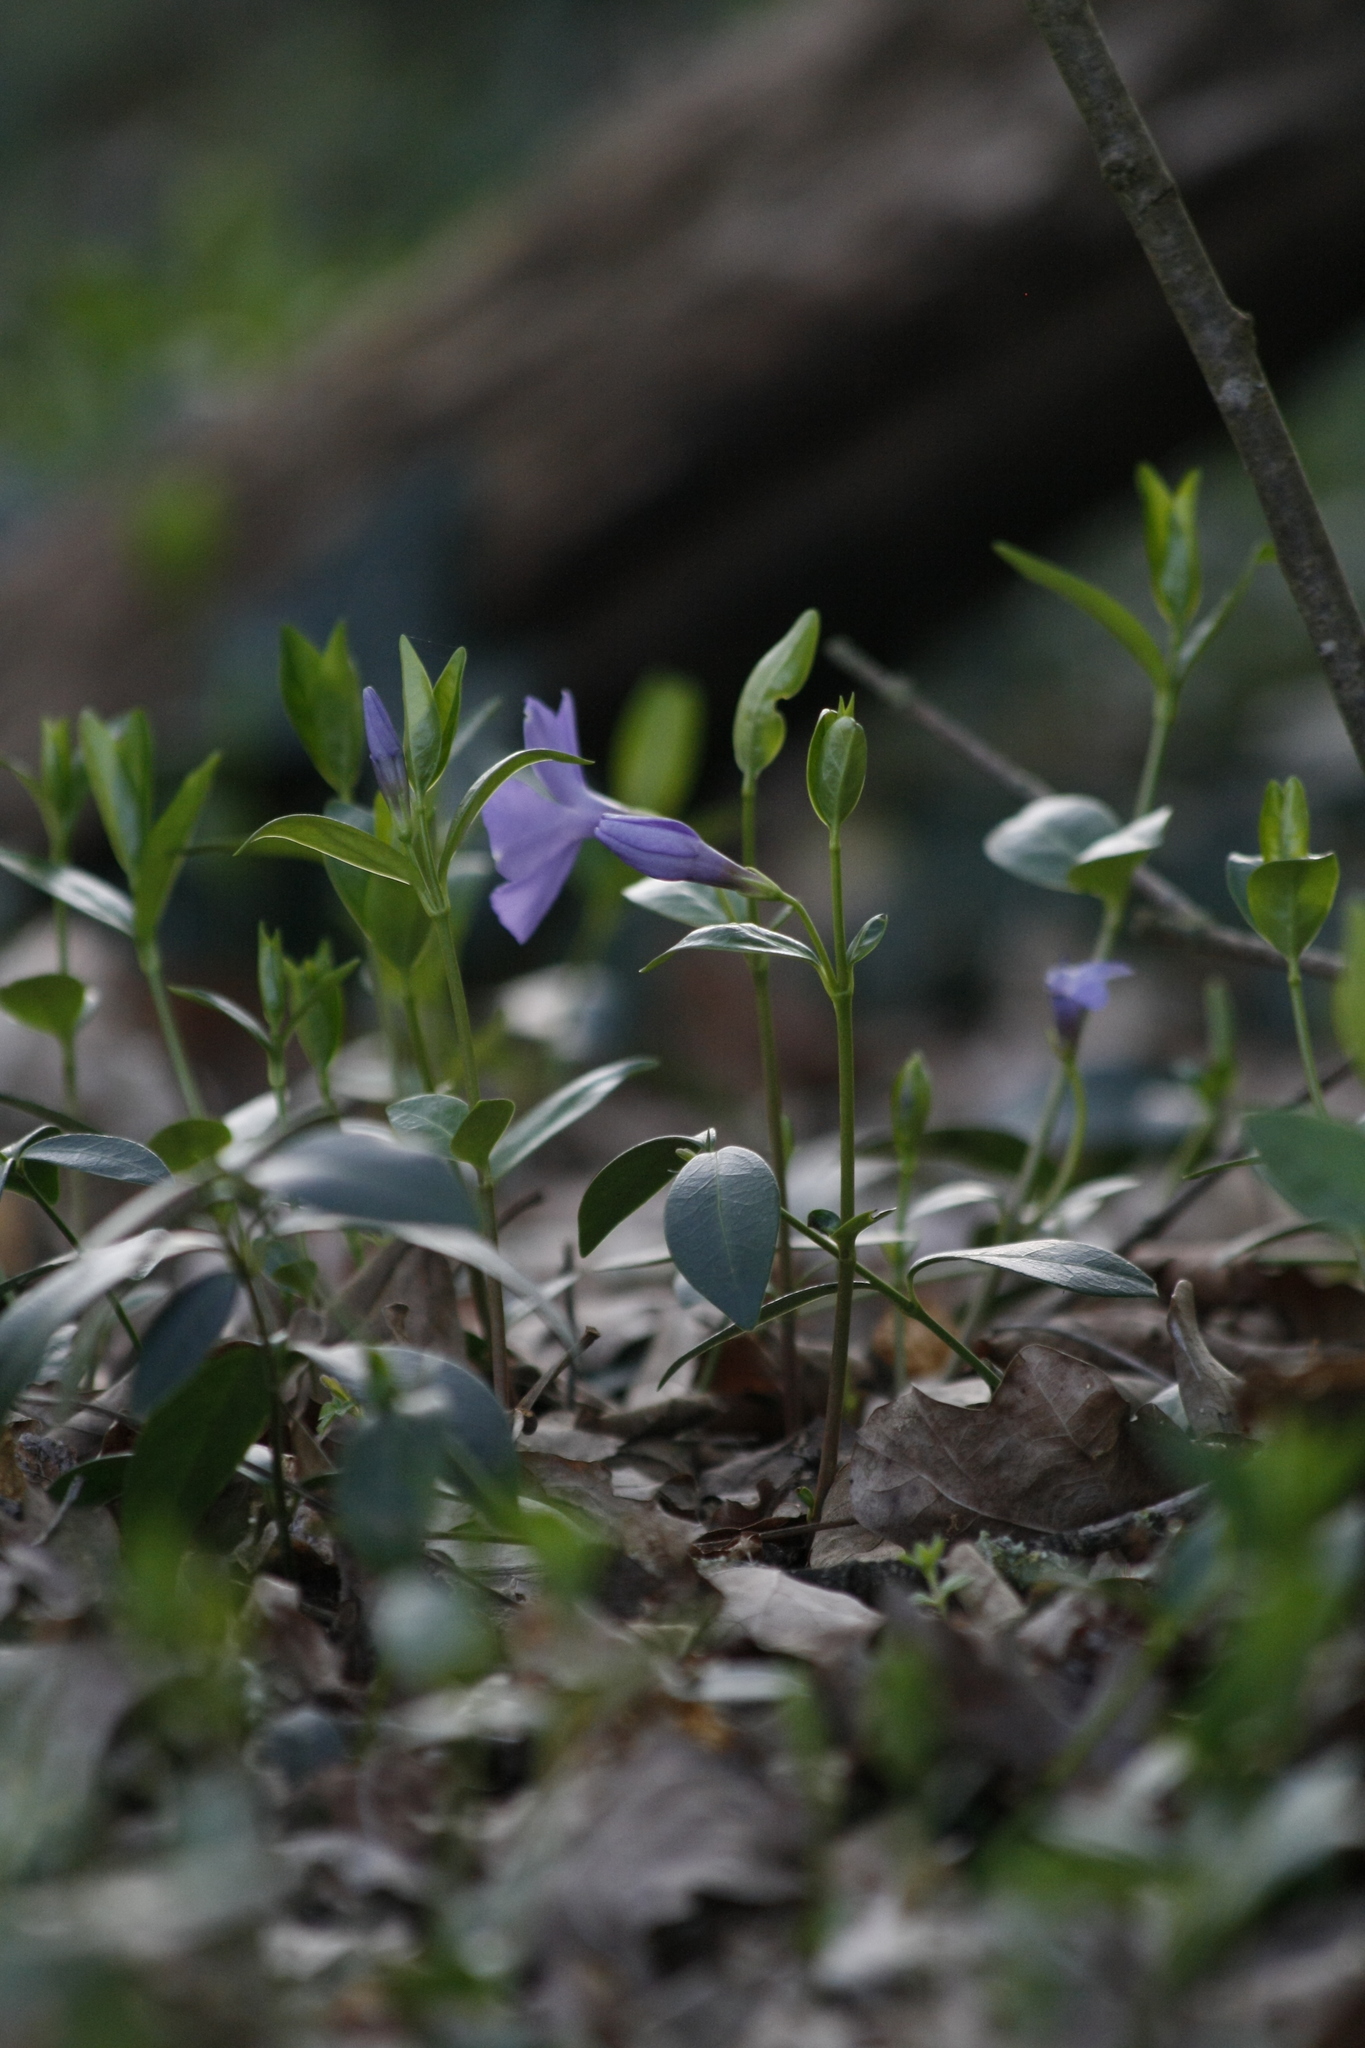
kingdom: Plantae
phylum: Tracheophyta
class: Magnoliopsida
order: Gentianales
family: Apocynaceae
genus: Vinca
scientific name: Vinca minor
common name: Lesser periwinkle
